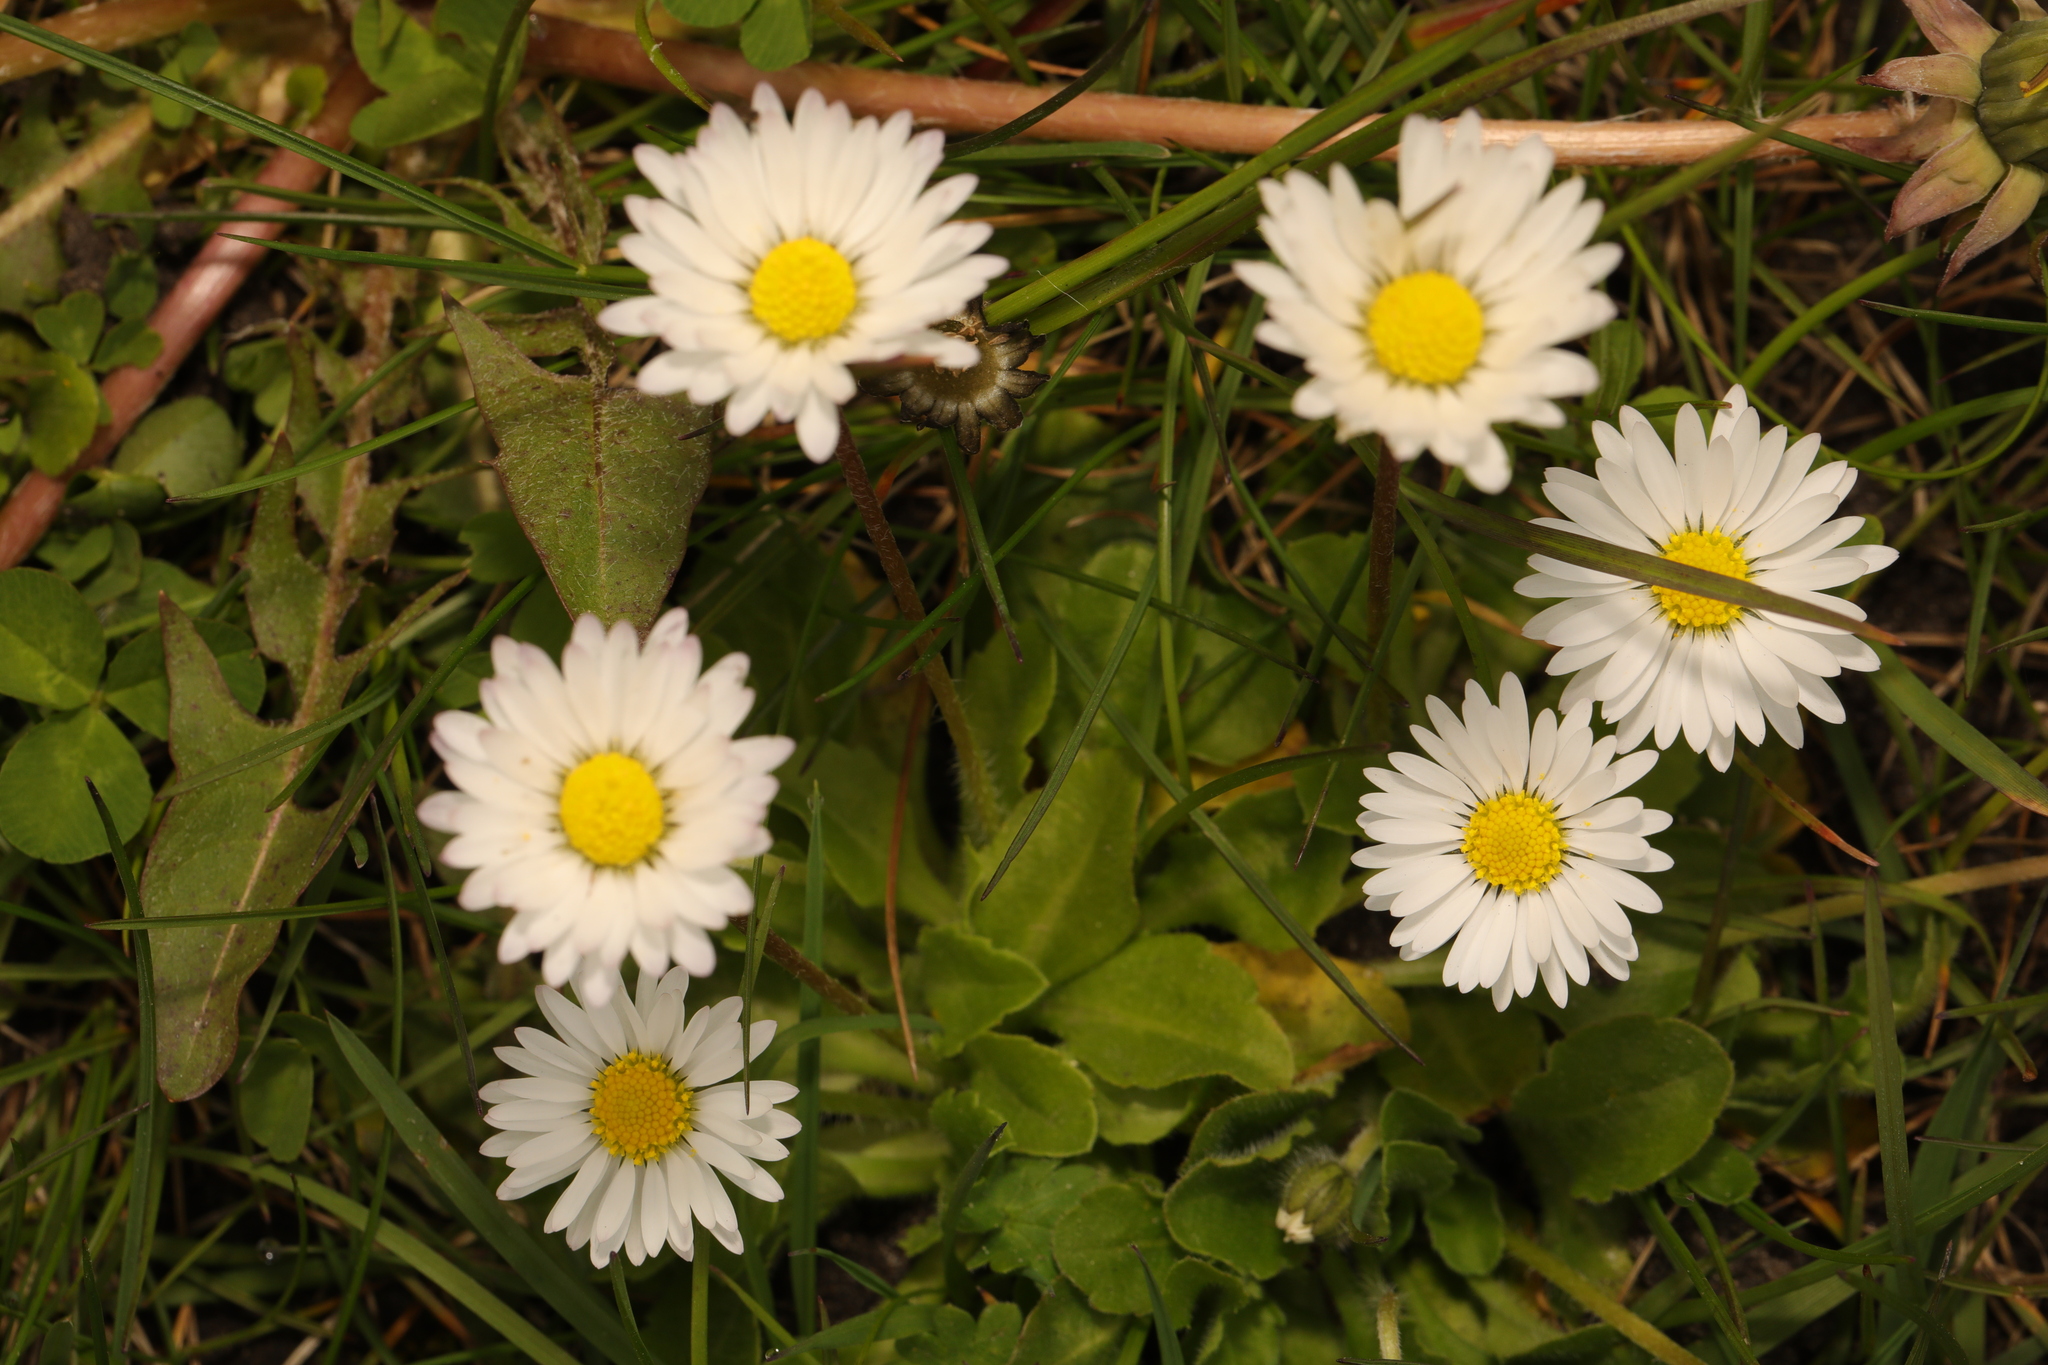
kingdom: Plantae
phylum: Tracheophyta
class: Magnoliopsida
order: Asterales
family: Asteraceae
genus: Bellis
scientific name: Bellis perennis
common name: Lawndaisy
